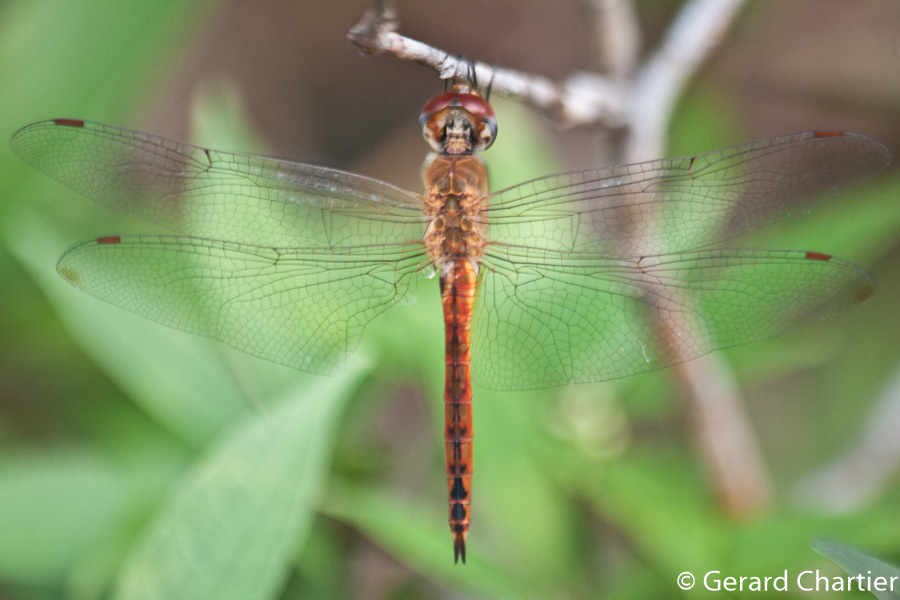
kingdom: Animalia
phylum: Arthropoda
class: Insecta
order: Odonata
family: Libellulidae
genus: Pantala
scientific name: Pantala flavescens
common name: Wandering glider
